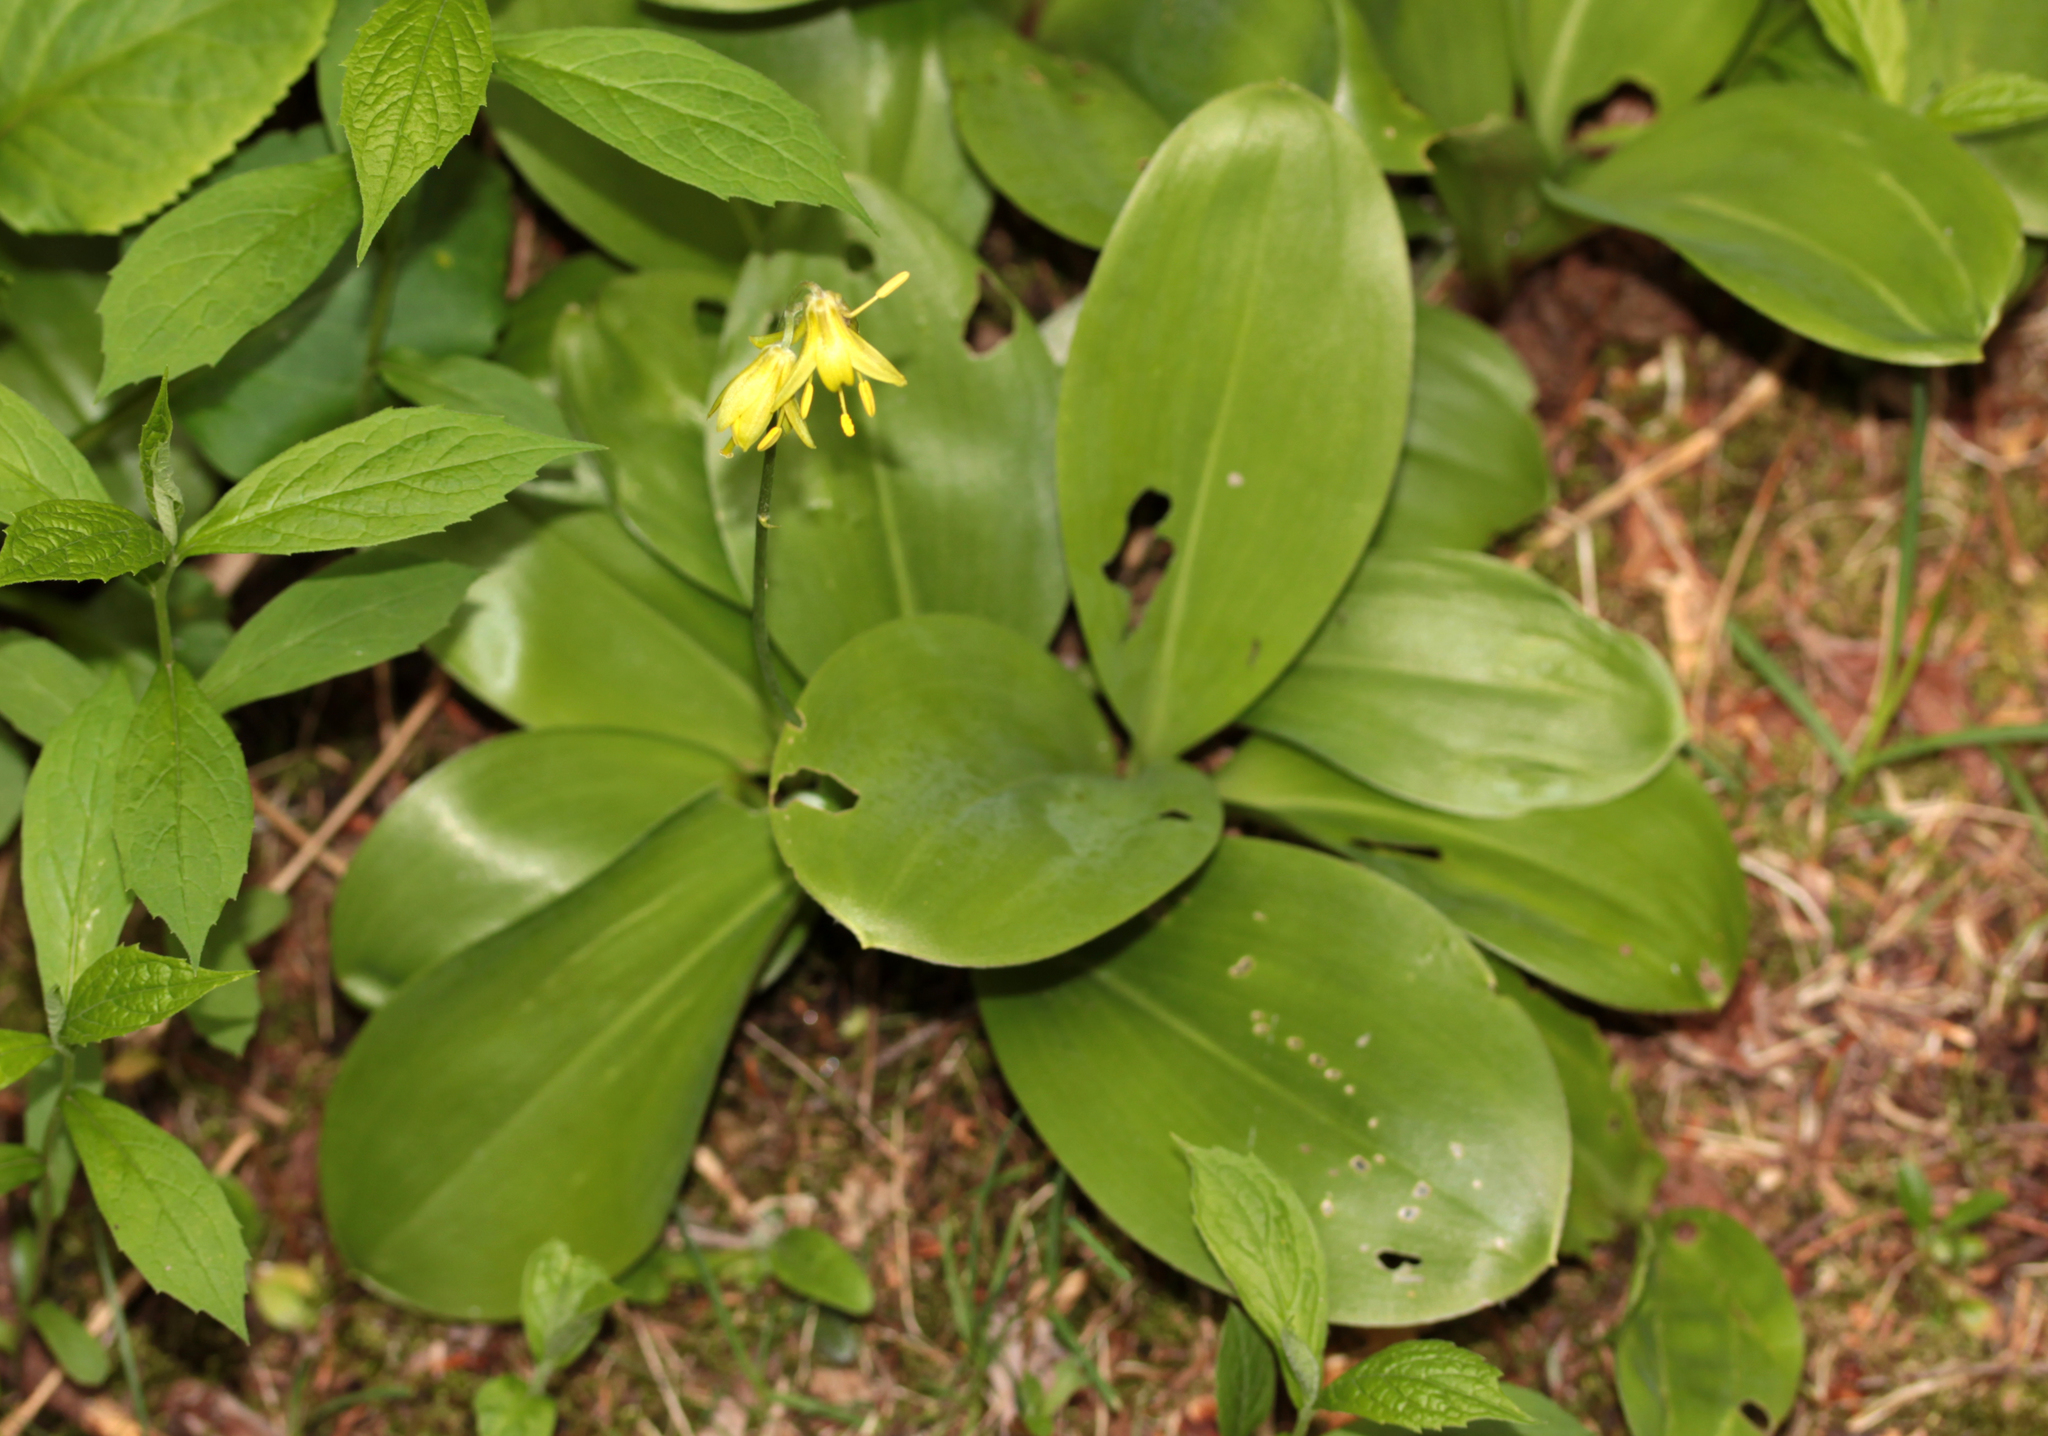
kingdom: Plantae
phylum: Tracheophyta
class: Liliopsida
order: Liliales
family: Liliaceae
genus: Clintonia
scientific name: Clintonia borealis
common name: Yellow clintonia
